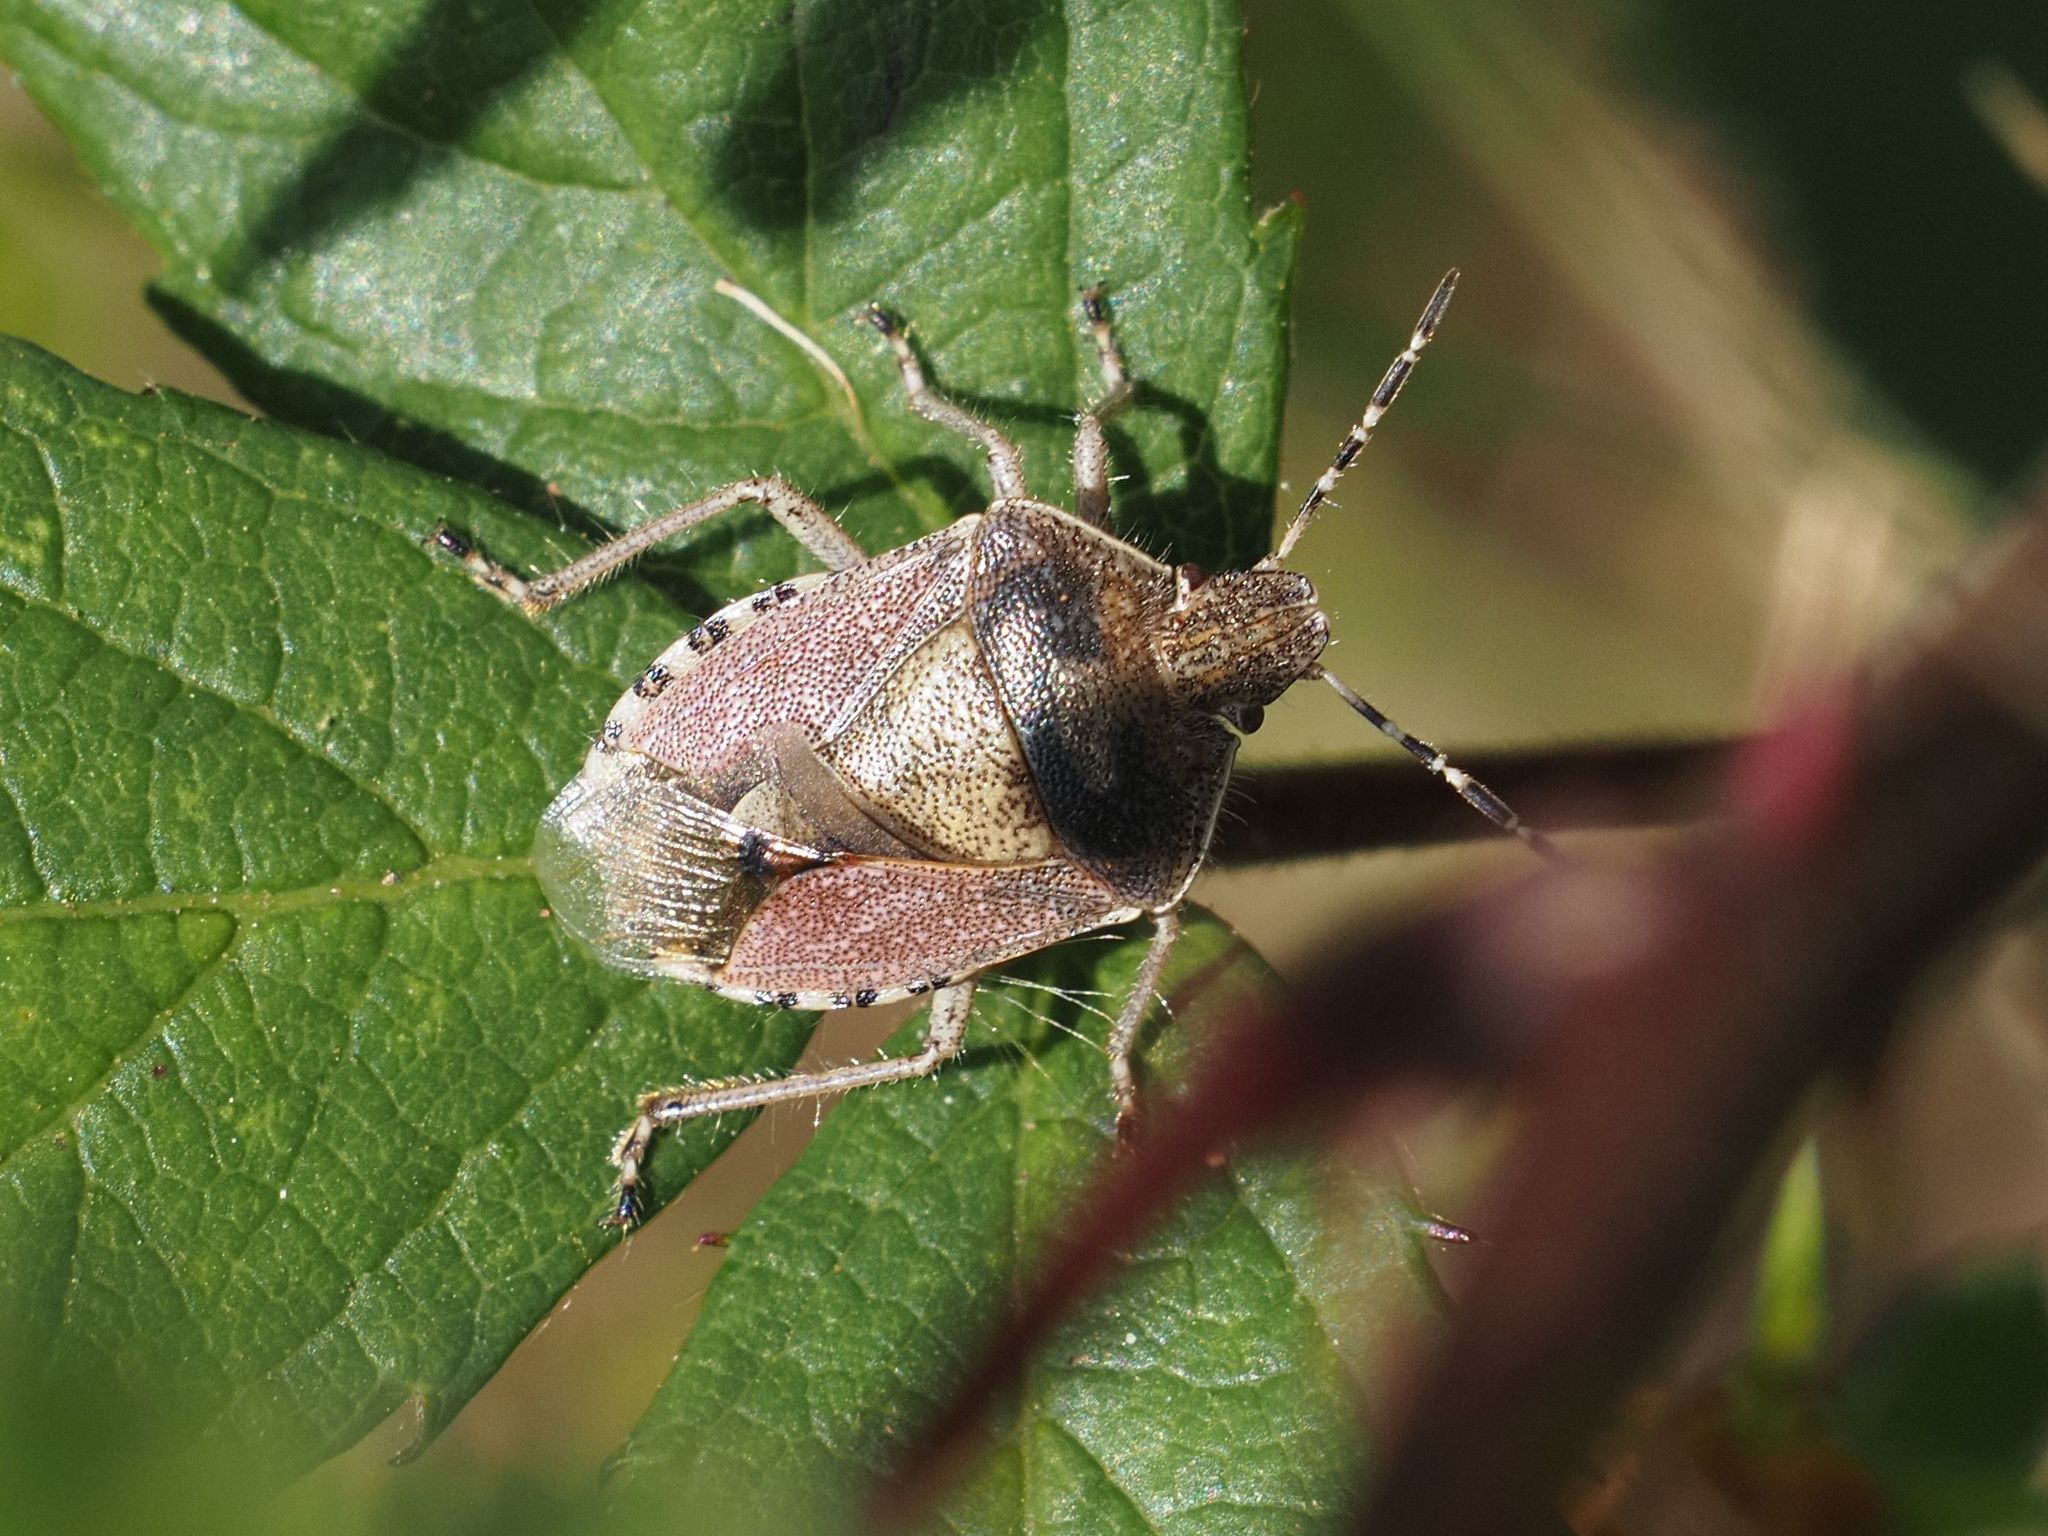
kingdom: Animalia
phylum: Arthropoda
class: Insecta
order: Hemiptera
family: Pentatomidae
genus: Dolycoris
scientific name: Dolycoris baccarum
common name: Sloe bug
